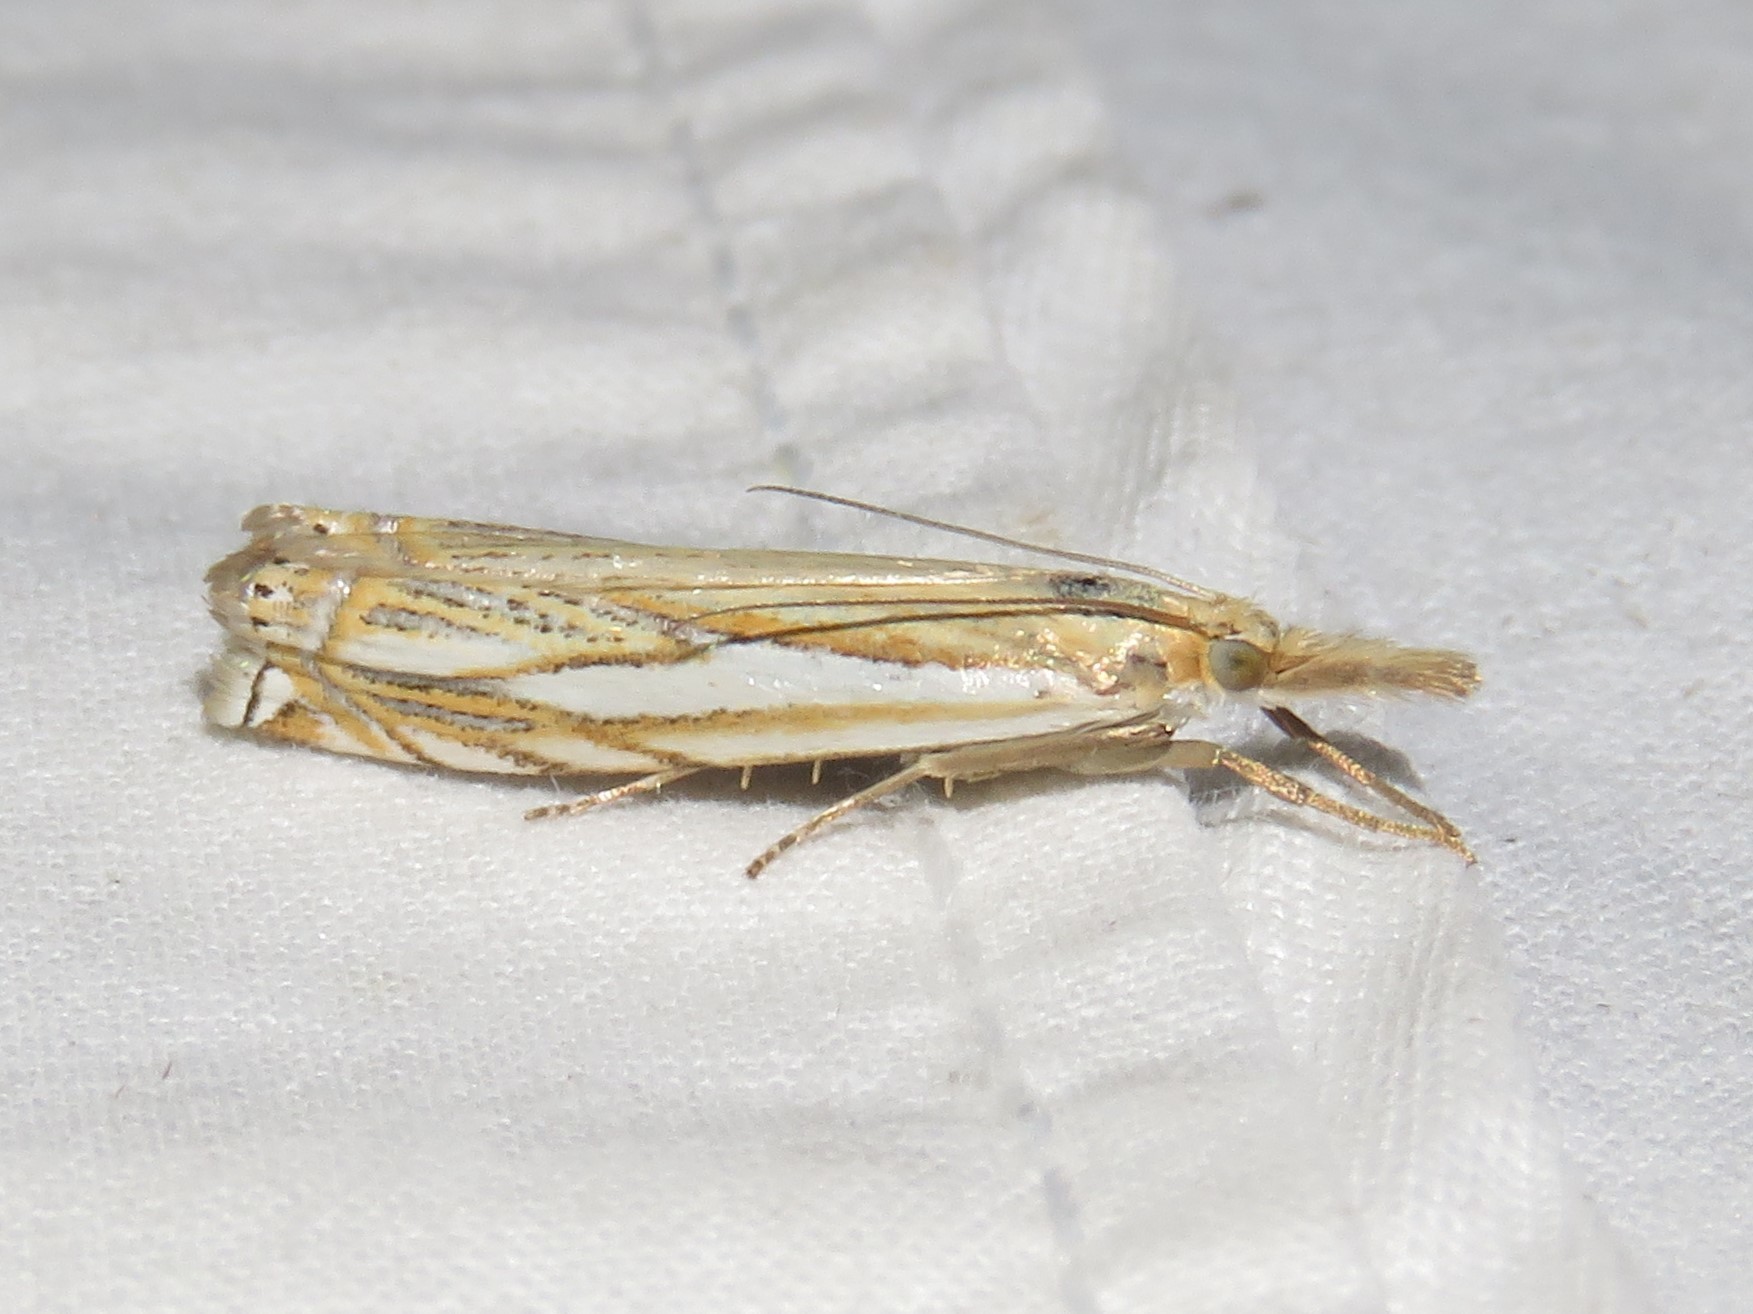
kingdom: Animalia
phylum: Arthropoda
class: Insecta
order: Lepidoptera
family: Crambidae
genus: Crambus
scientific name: Crambus saltuellus
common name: Pasture grass-veneer
